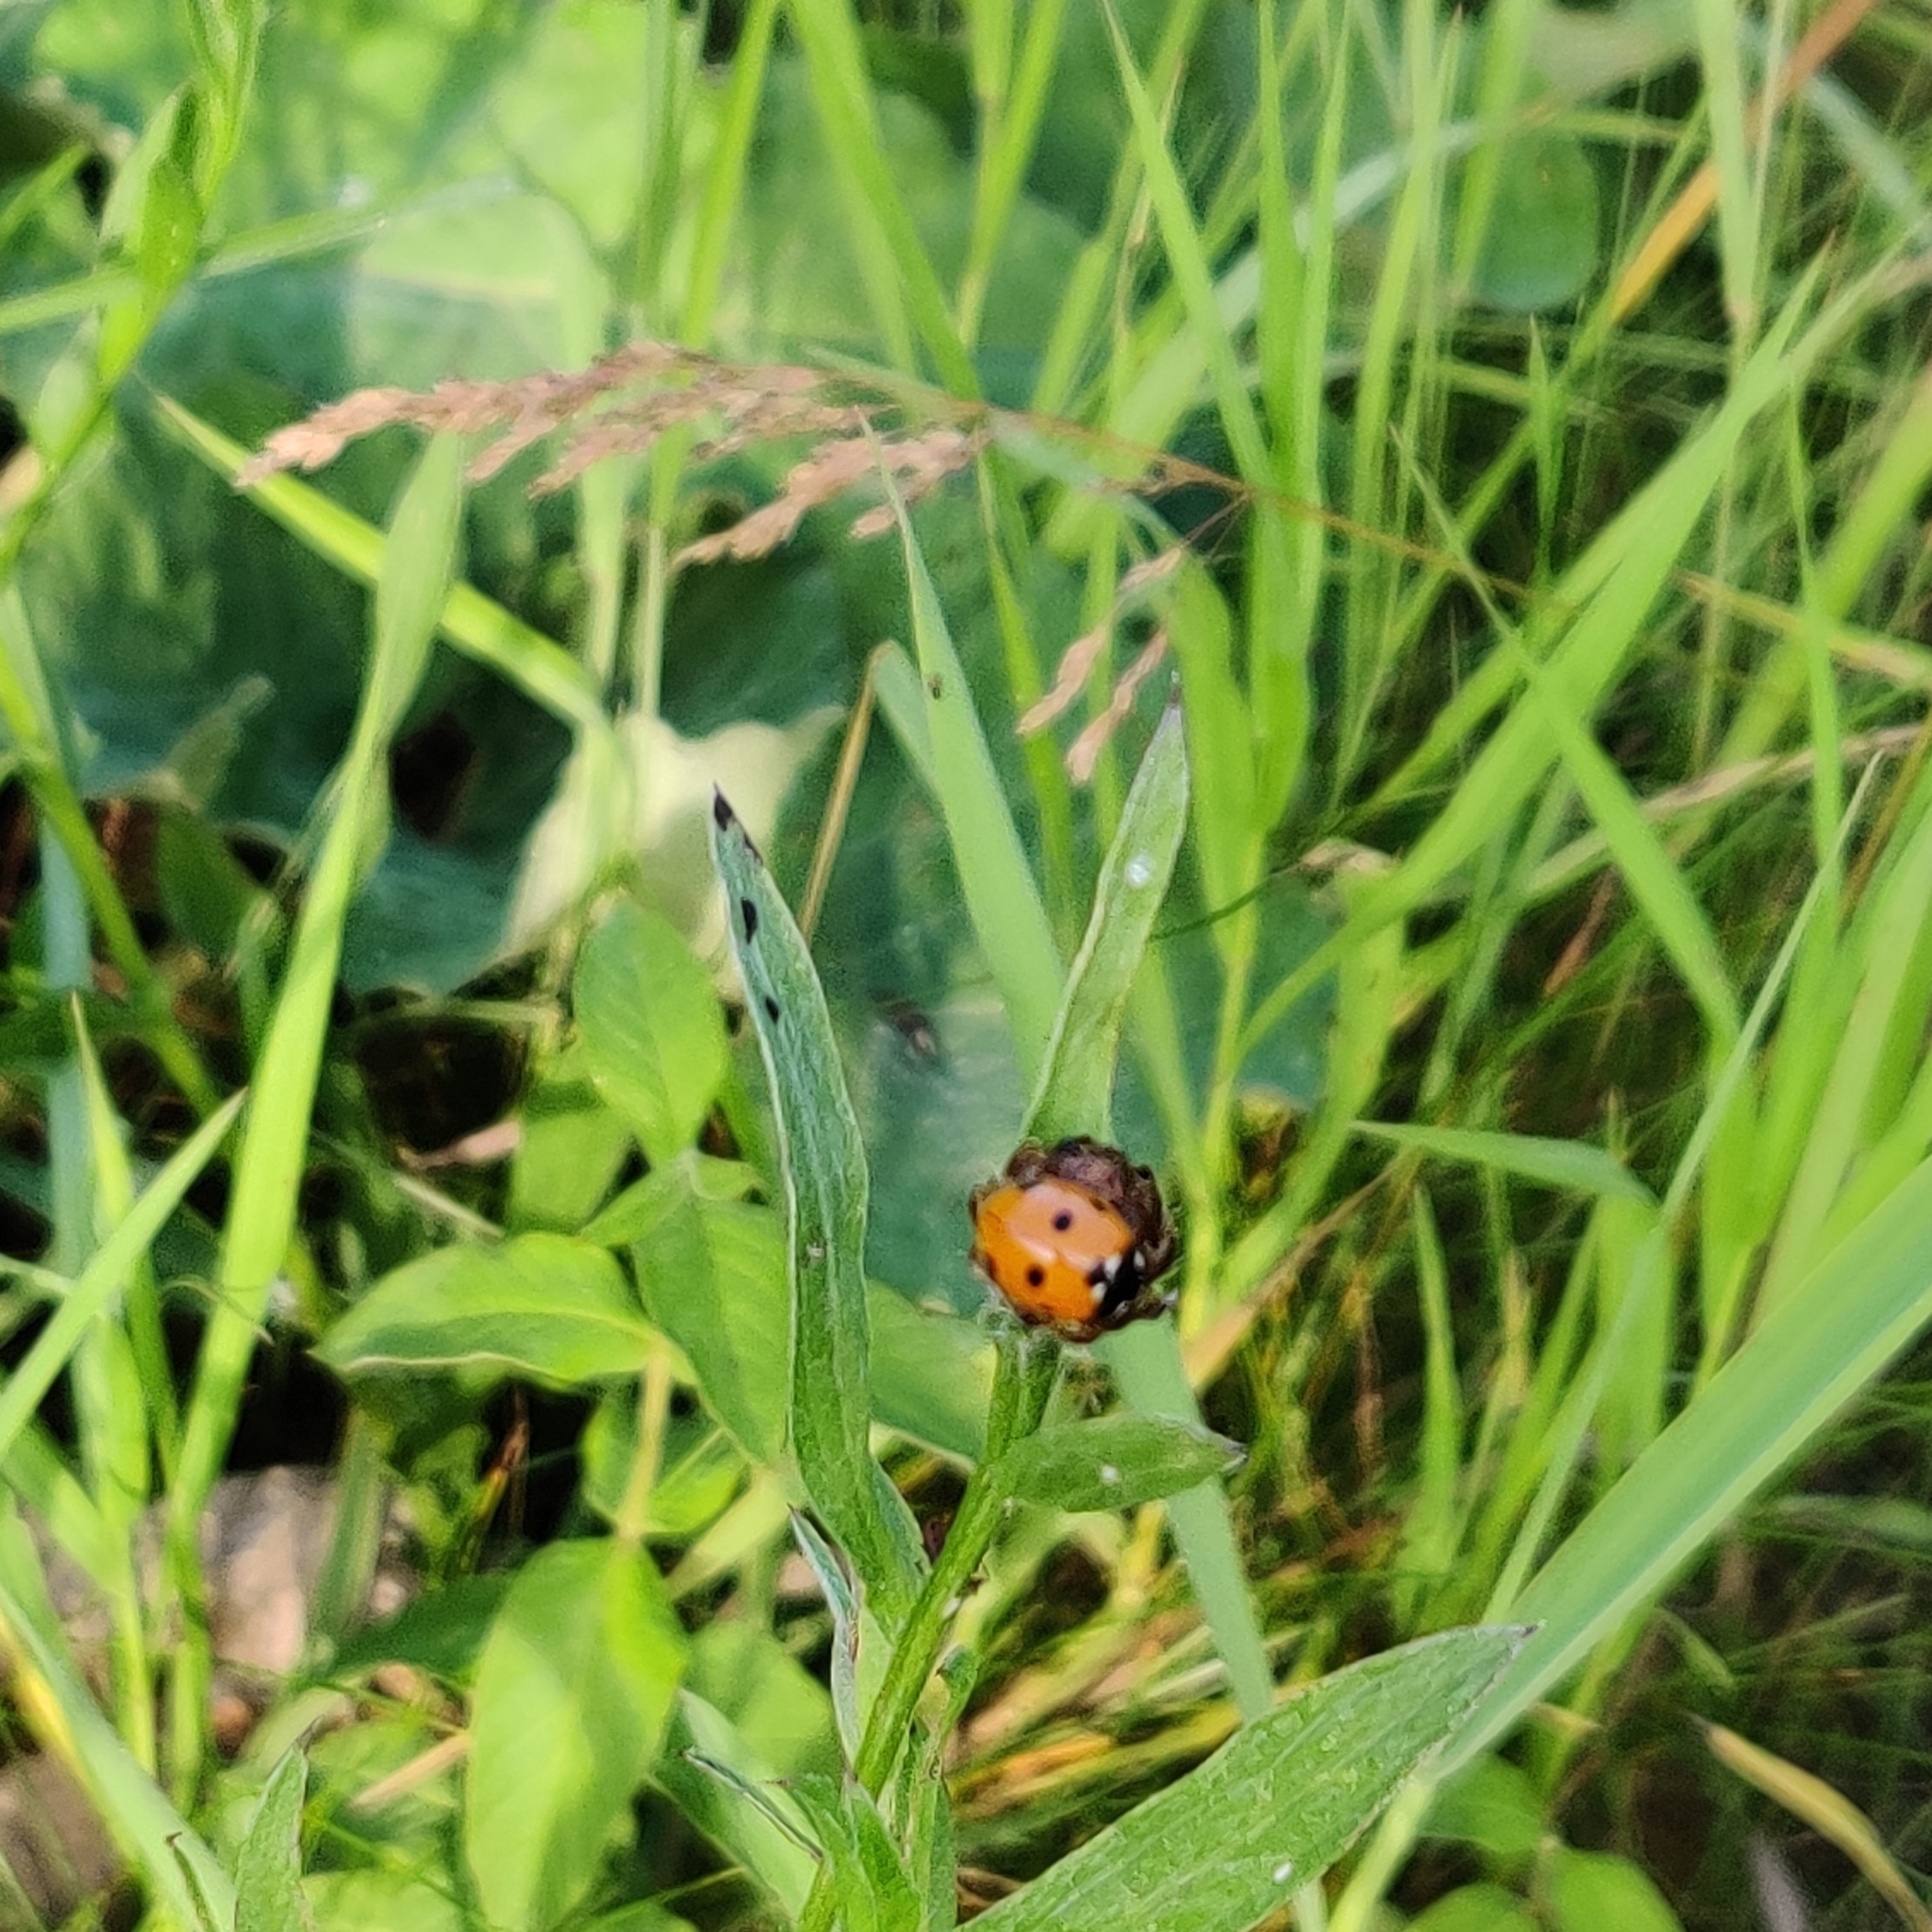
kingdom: Animalia
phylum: Arthropoda
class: Insecta
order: Coleoptera
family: Coccinellidae
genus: Coccinella
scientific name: Coccinella septempunctata
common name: Sevenspotted lady beetle
